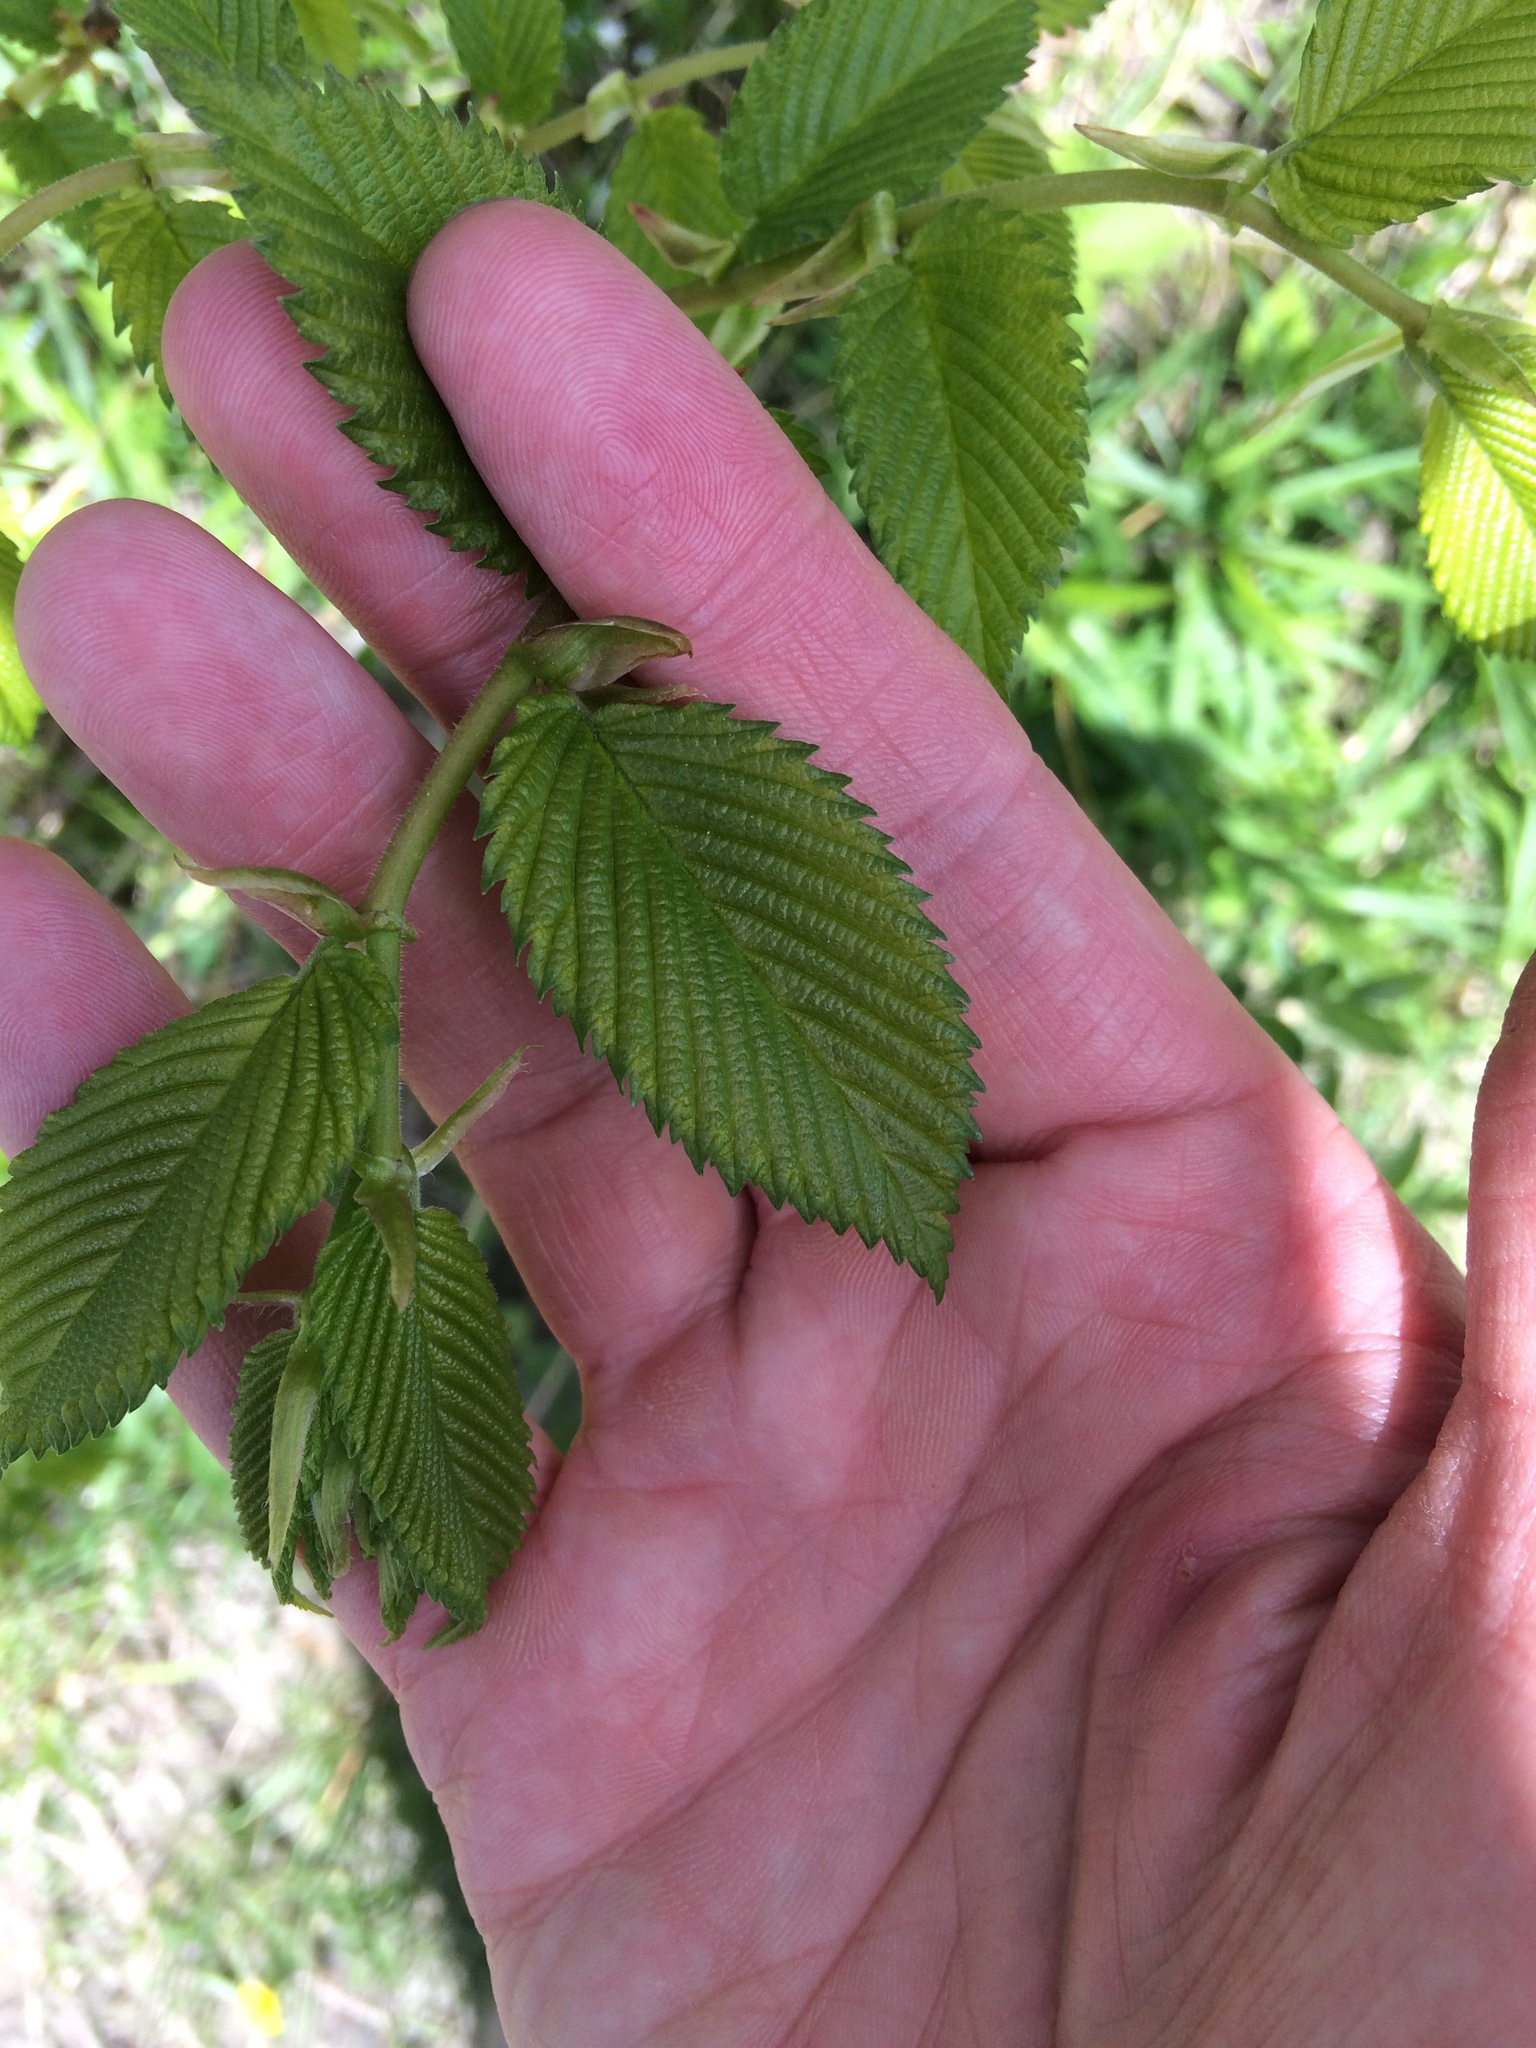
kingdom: Plantae
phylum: Tracheophyta
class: Magnoliopsida
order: Rosales
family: Ulmaceae
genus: Ulmus
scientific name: Ulmus americana
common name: American elm
